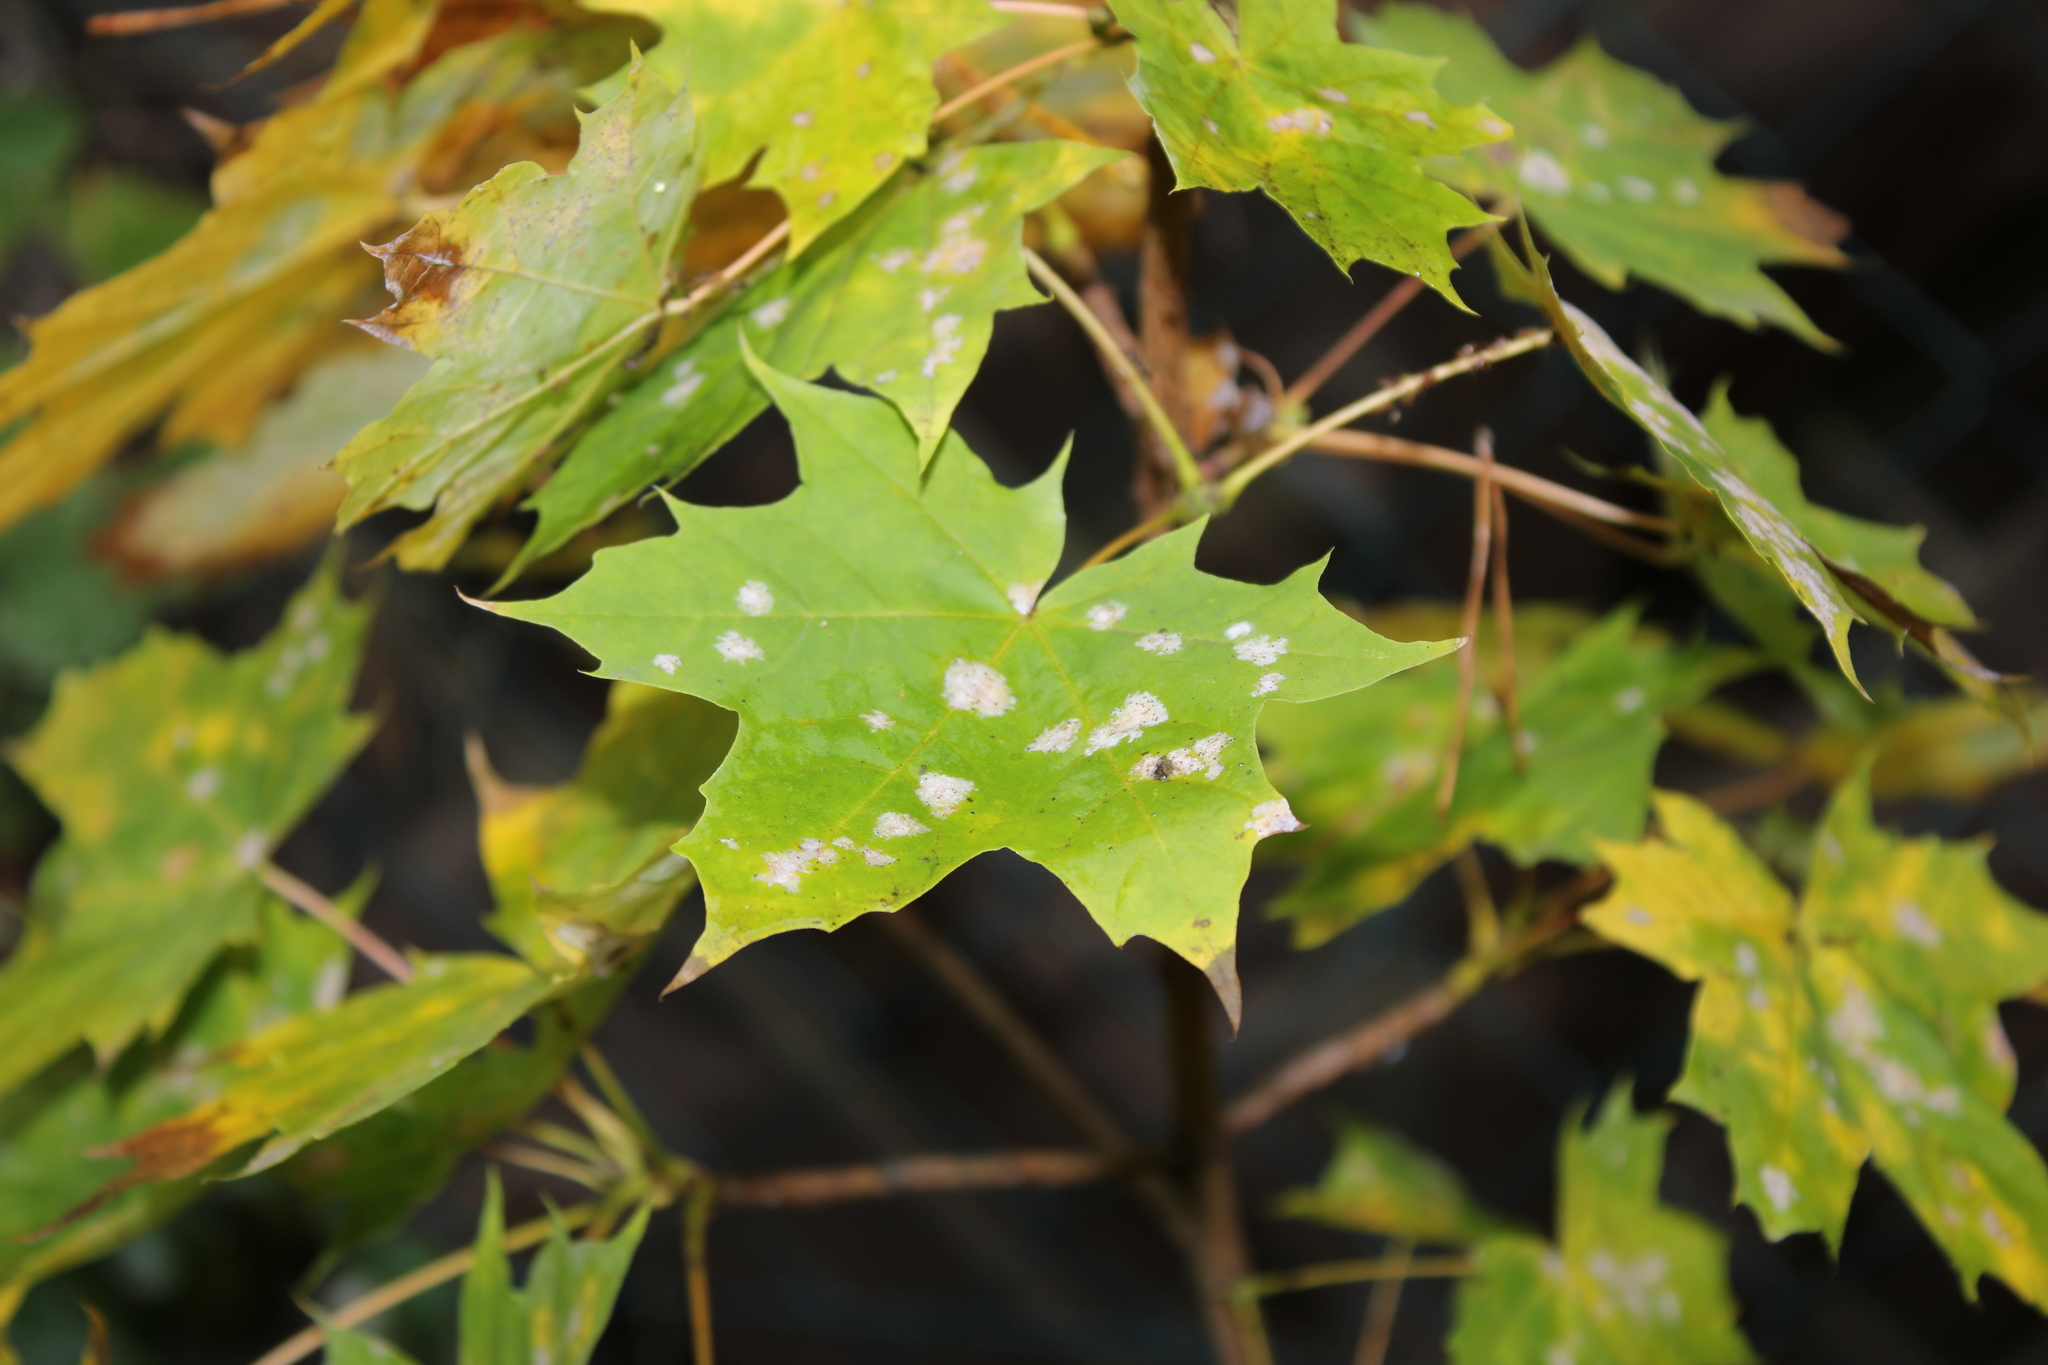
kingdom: Plantae
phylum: Tracheophyta
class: Magnoliopsida
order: Sapindales
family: Sapindaceae
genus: Acer
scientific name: Acer platanoides
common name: Norway maple
